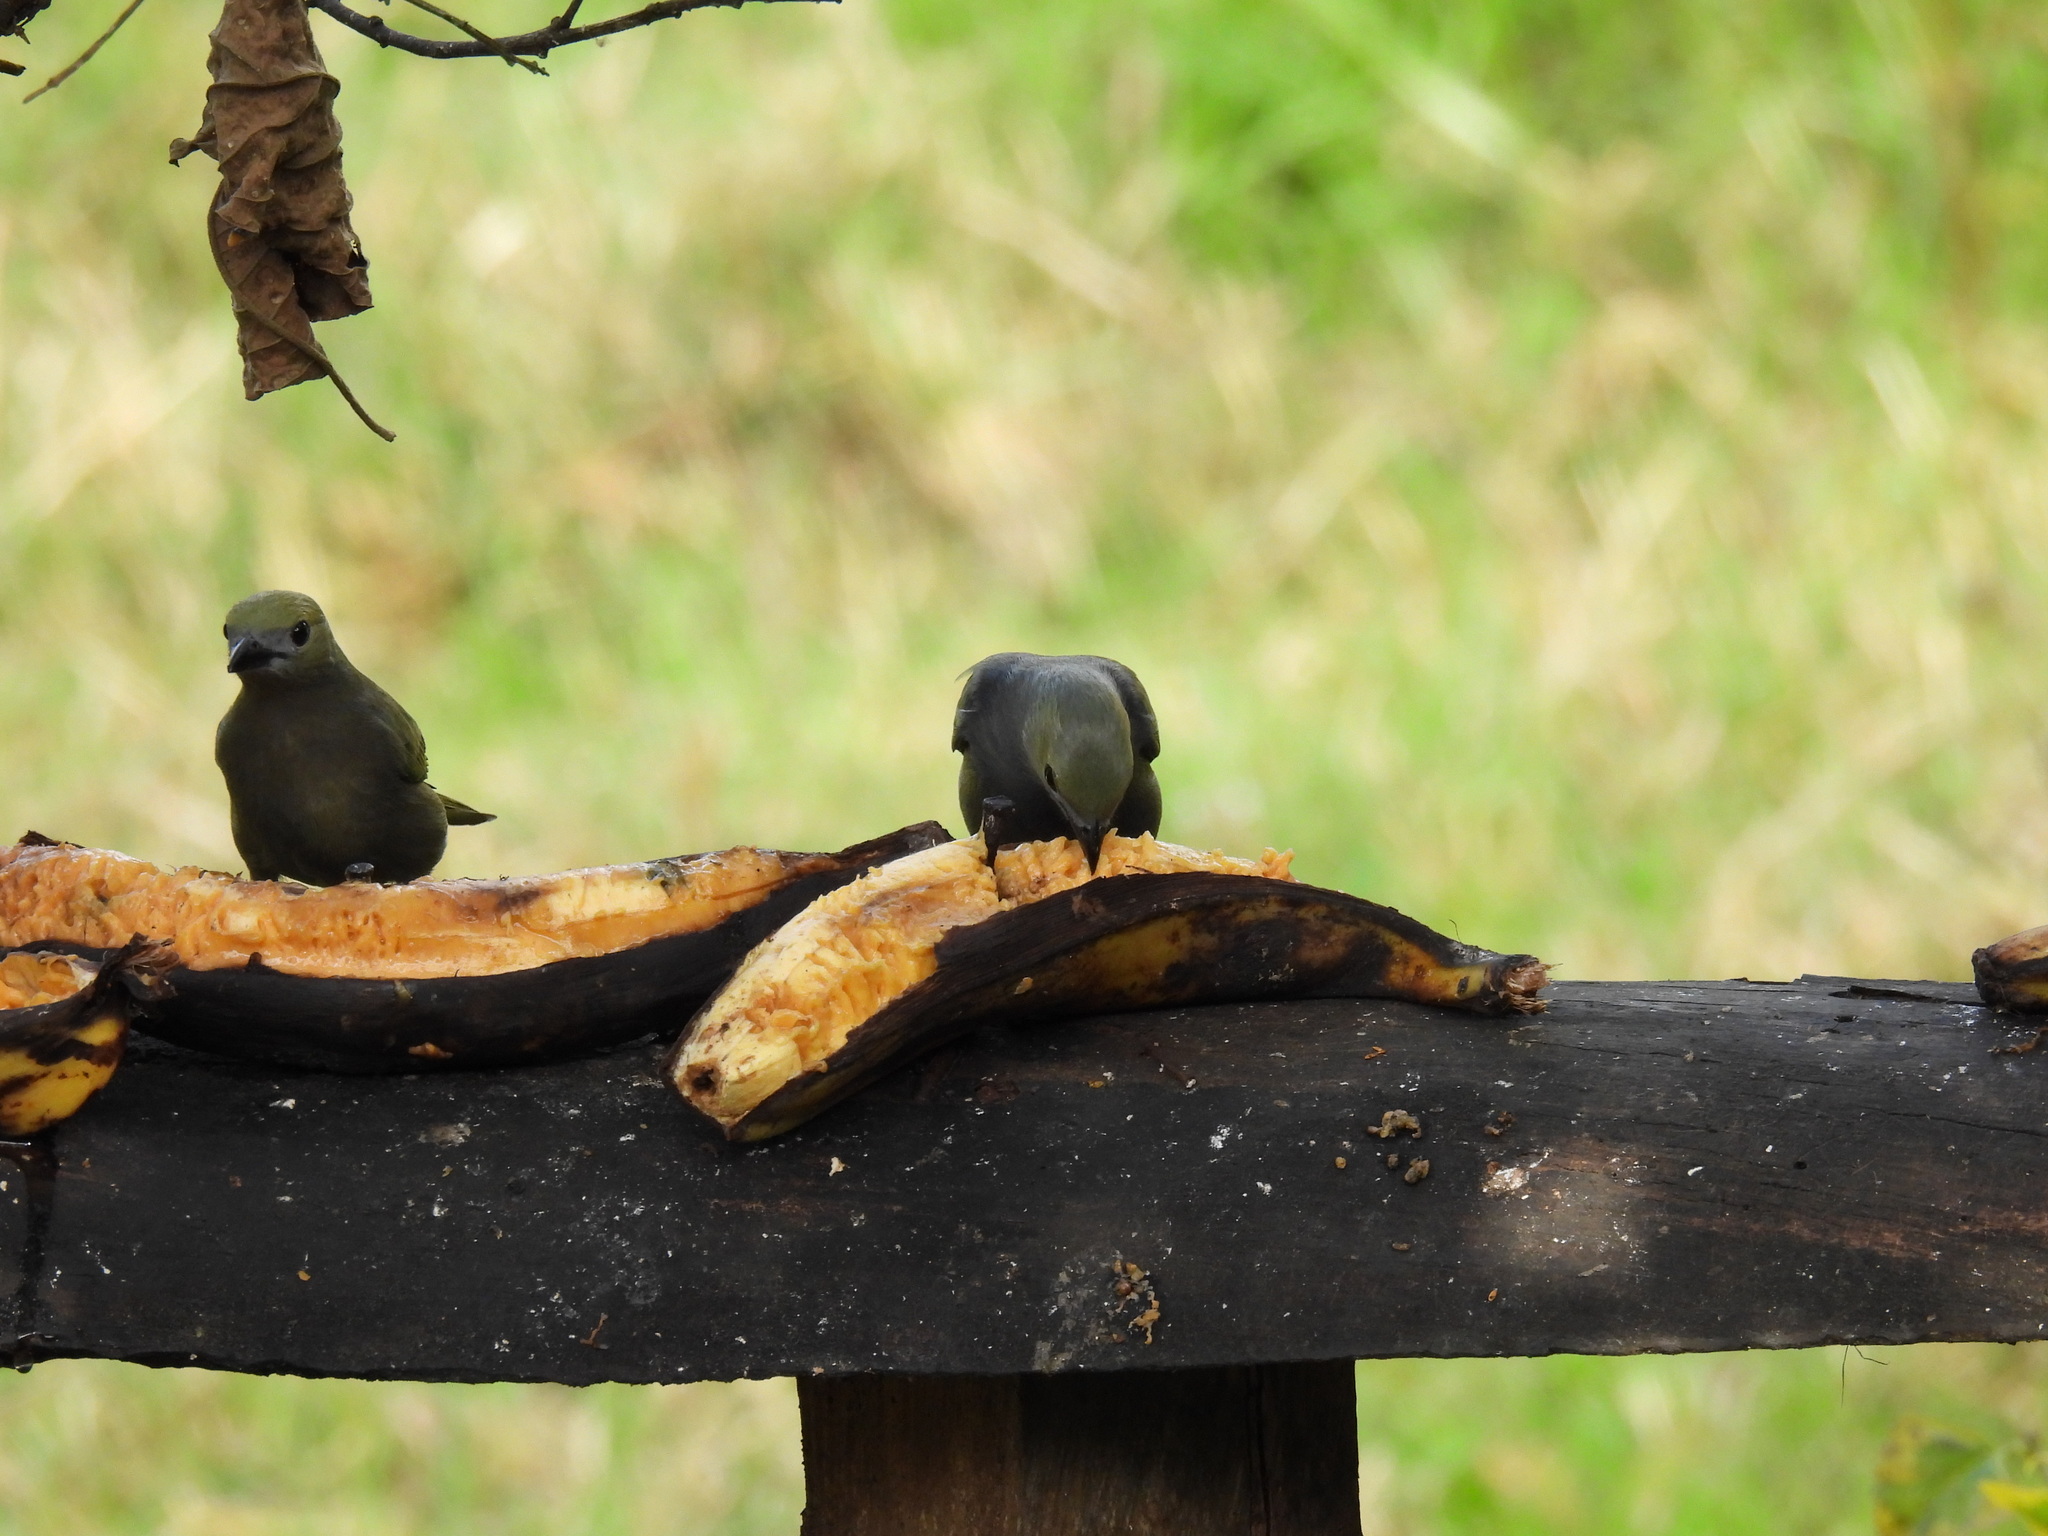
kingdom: Animalia
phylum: Chordata
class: Aves
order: Passeriformes
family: Thraupidae
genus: Thraupis
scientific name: Thraupis palmarum
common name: Palm tanager
